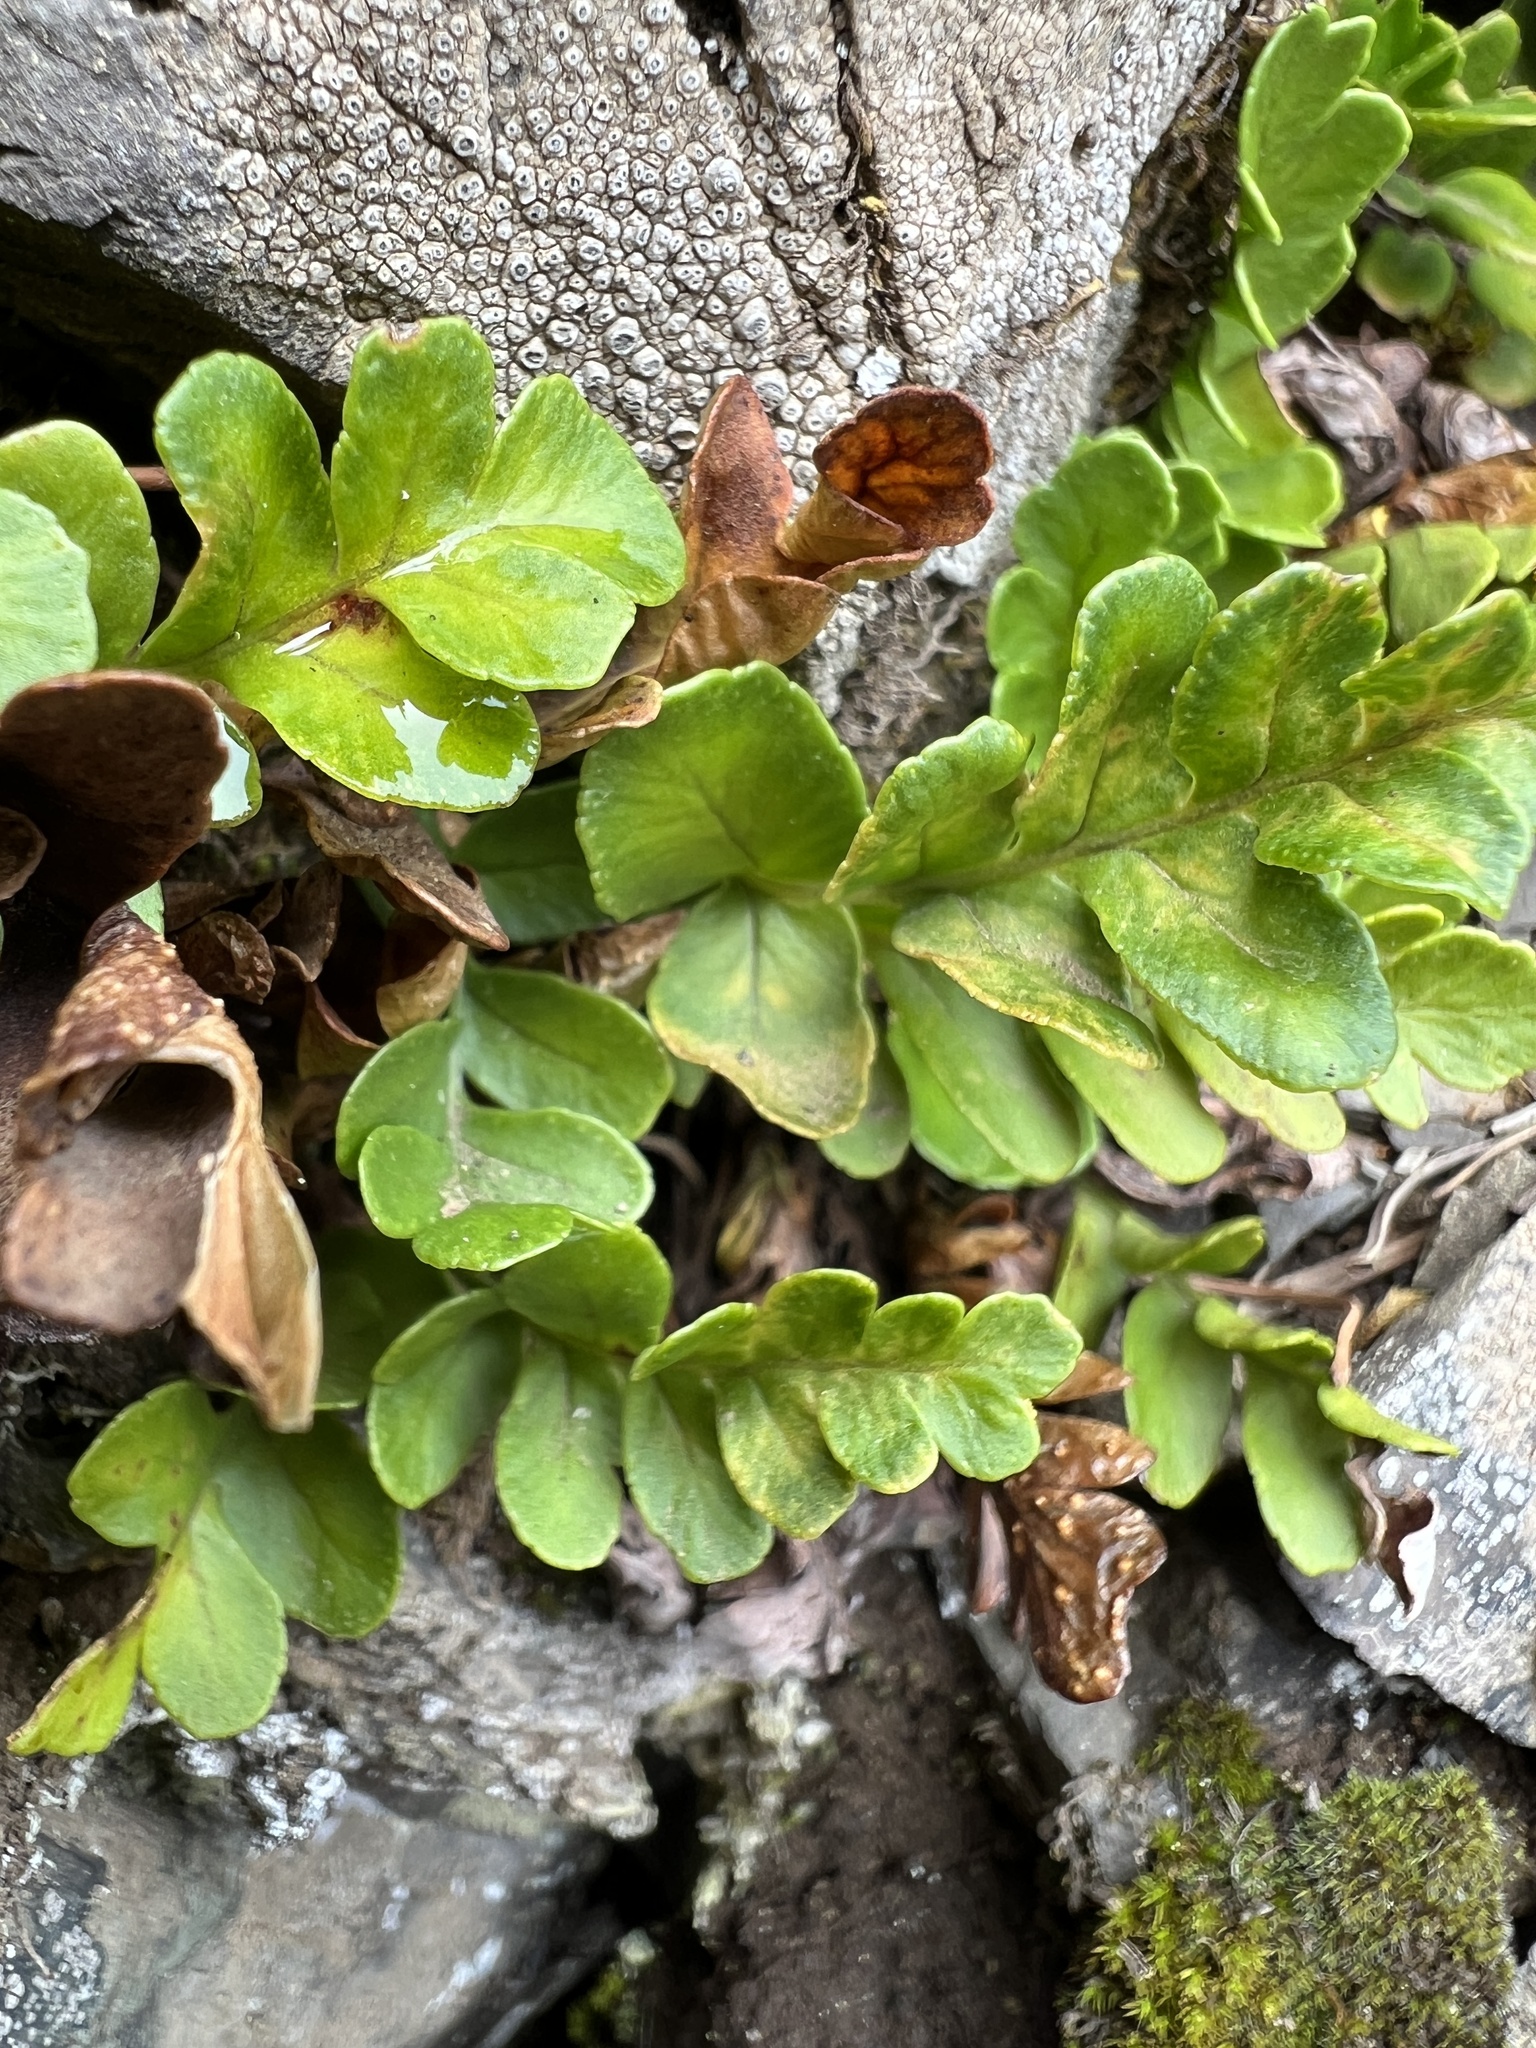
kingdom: Plantae
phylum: Tracheophyta
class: Polypodiopsida
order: Polypodiales
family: Polypodiaceae
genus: Polypodium
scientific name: Polypodium amorphum
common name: Pacific polypody
